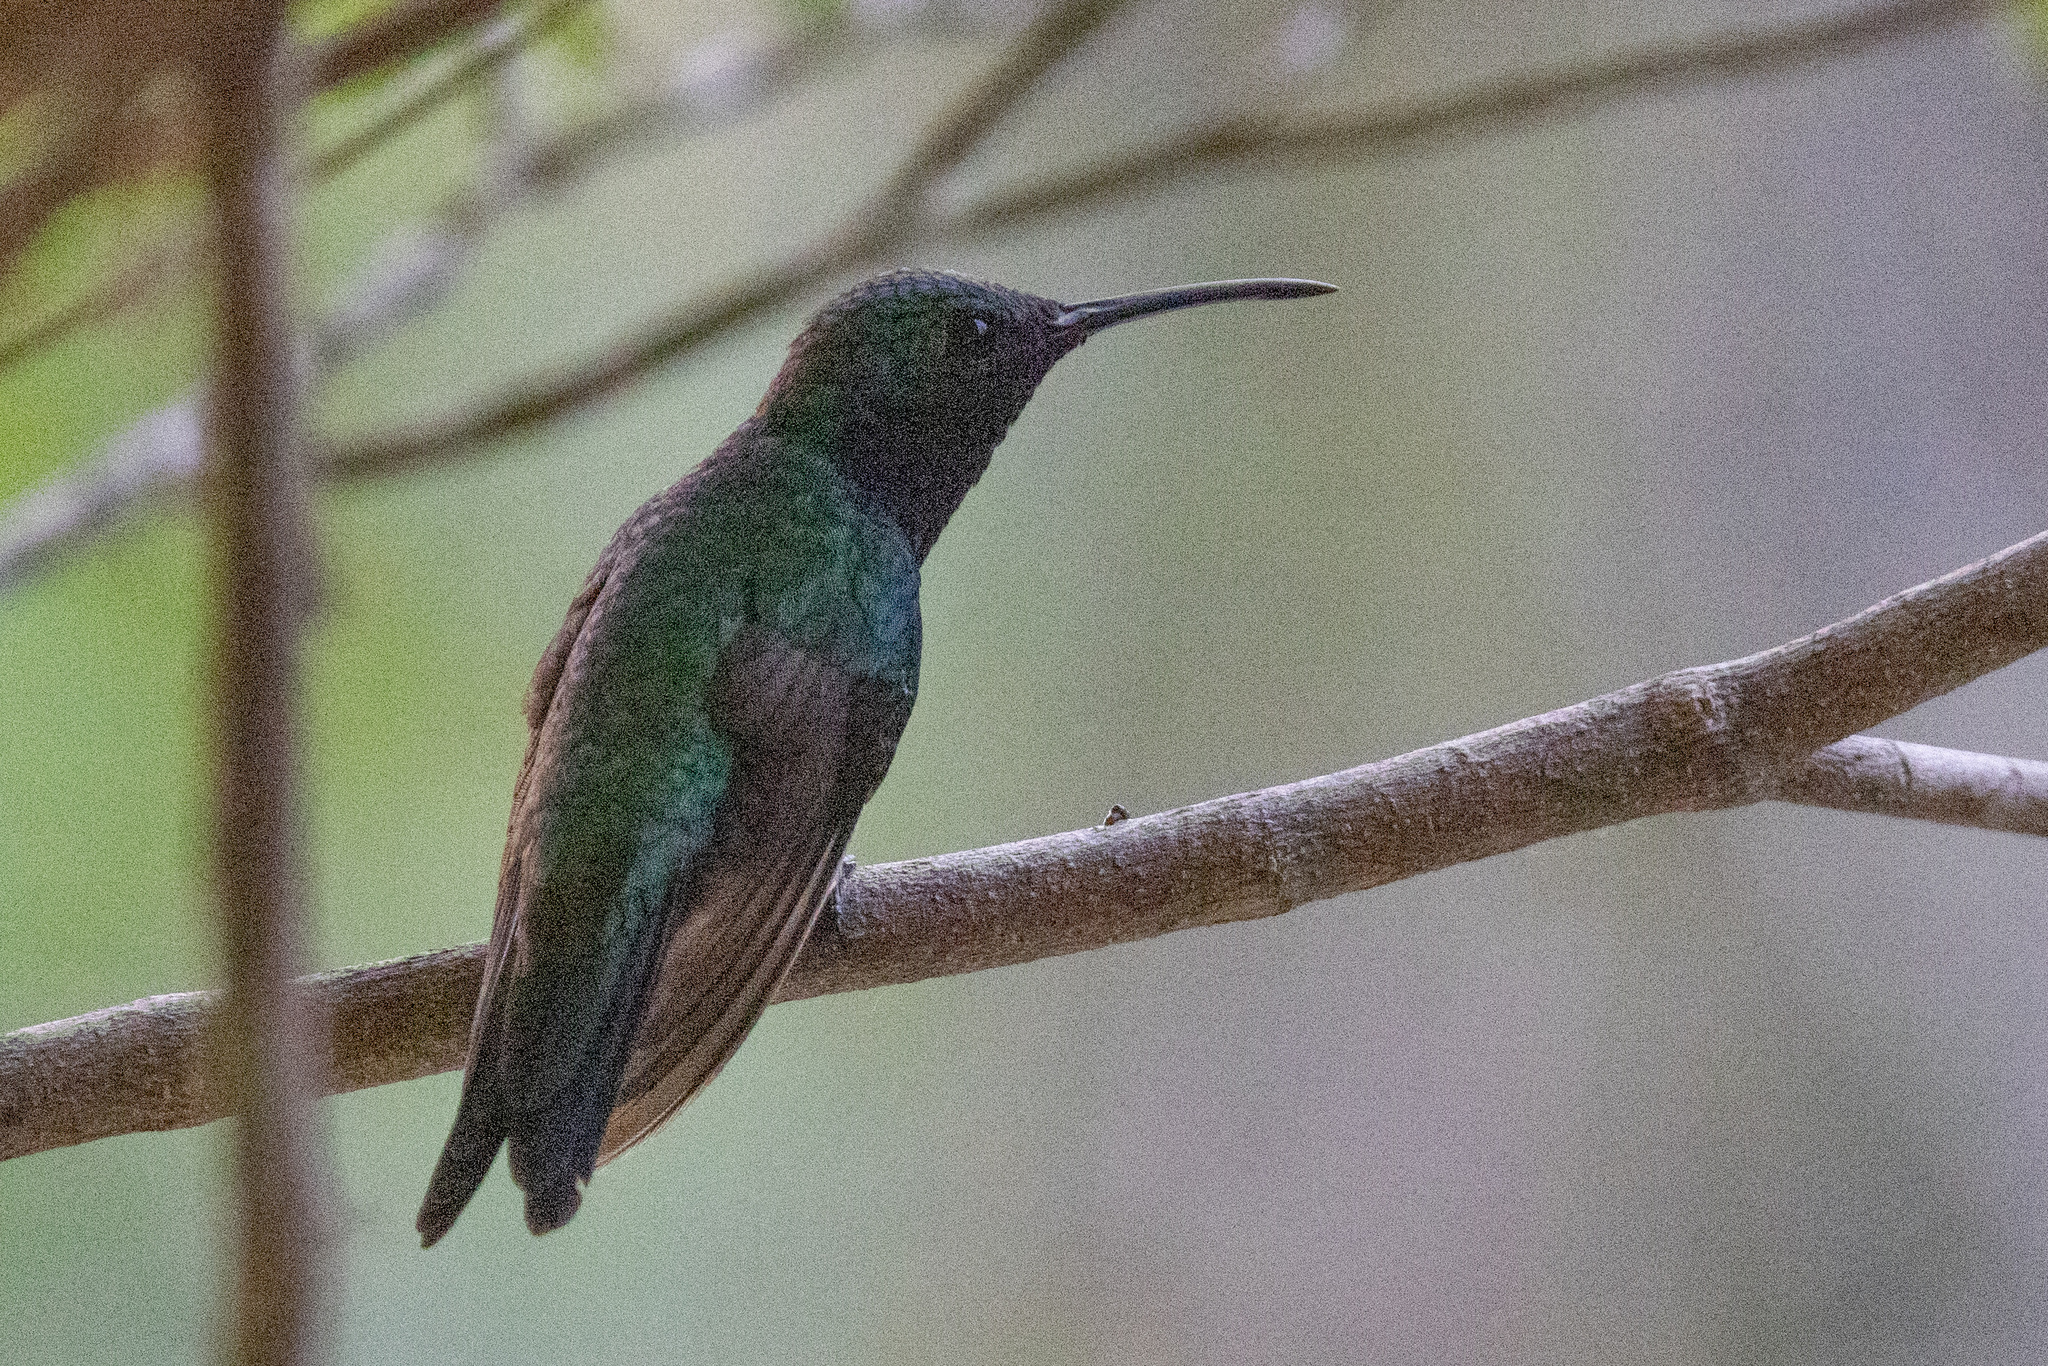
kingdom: Animalia
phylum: Chordata
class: Aves
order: Apodiformes
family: Trochilidae
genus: Chrysuronia
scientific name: Chrysuronia coeruleogularis
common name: Sapphire-throated hummingbird
